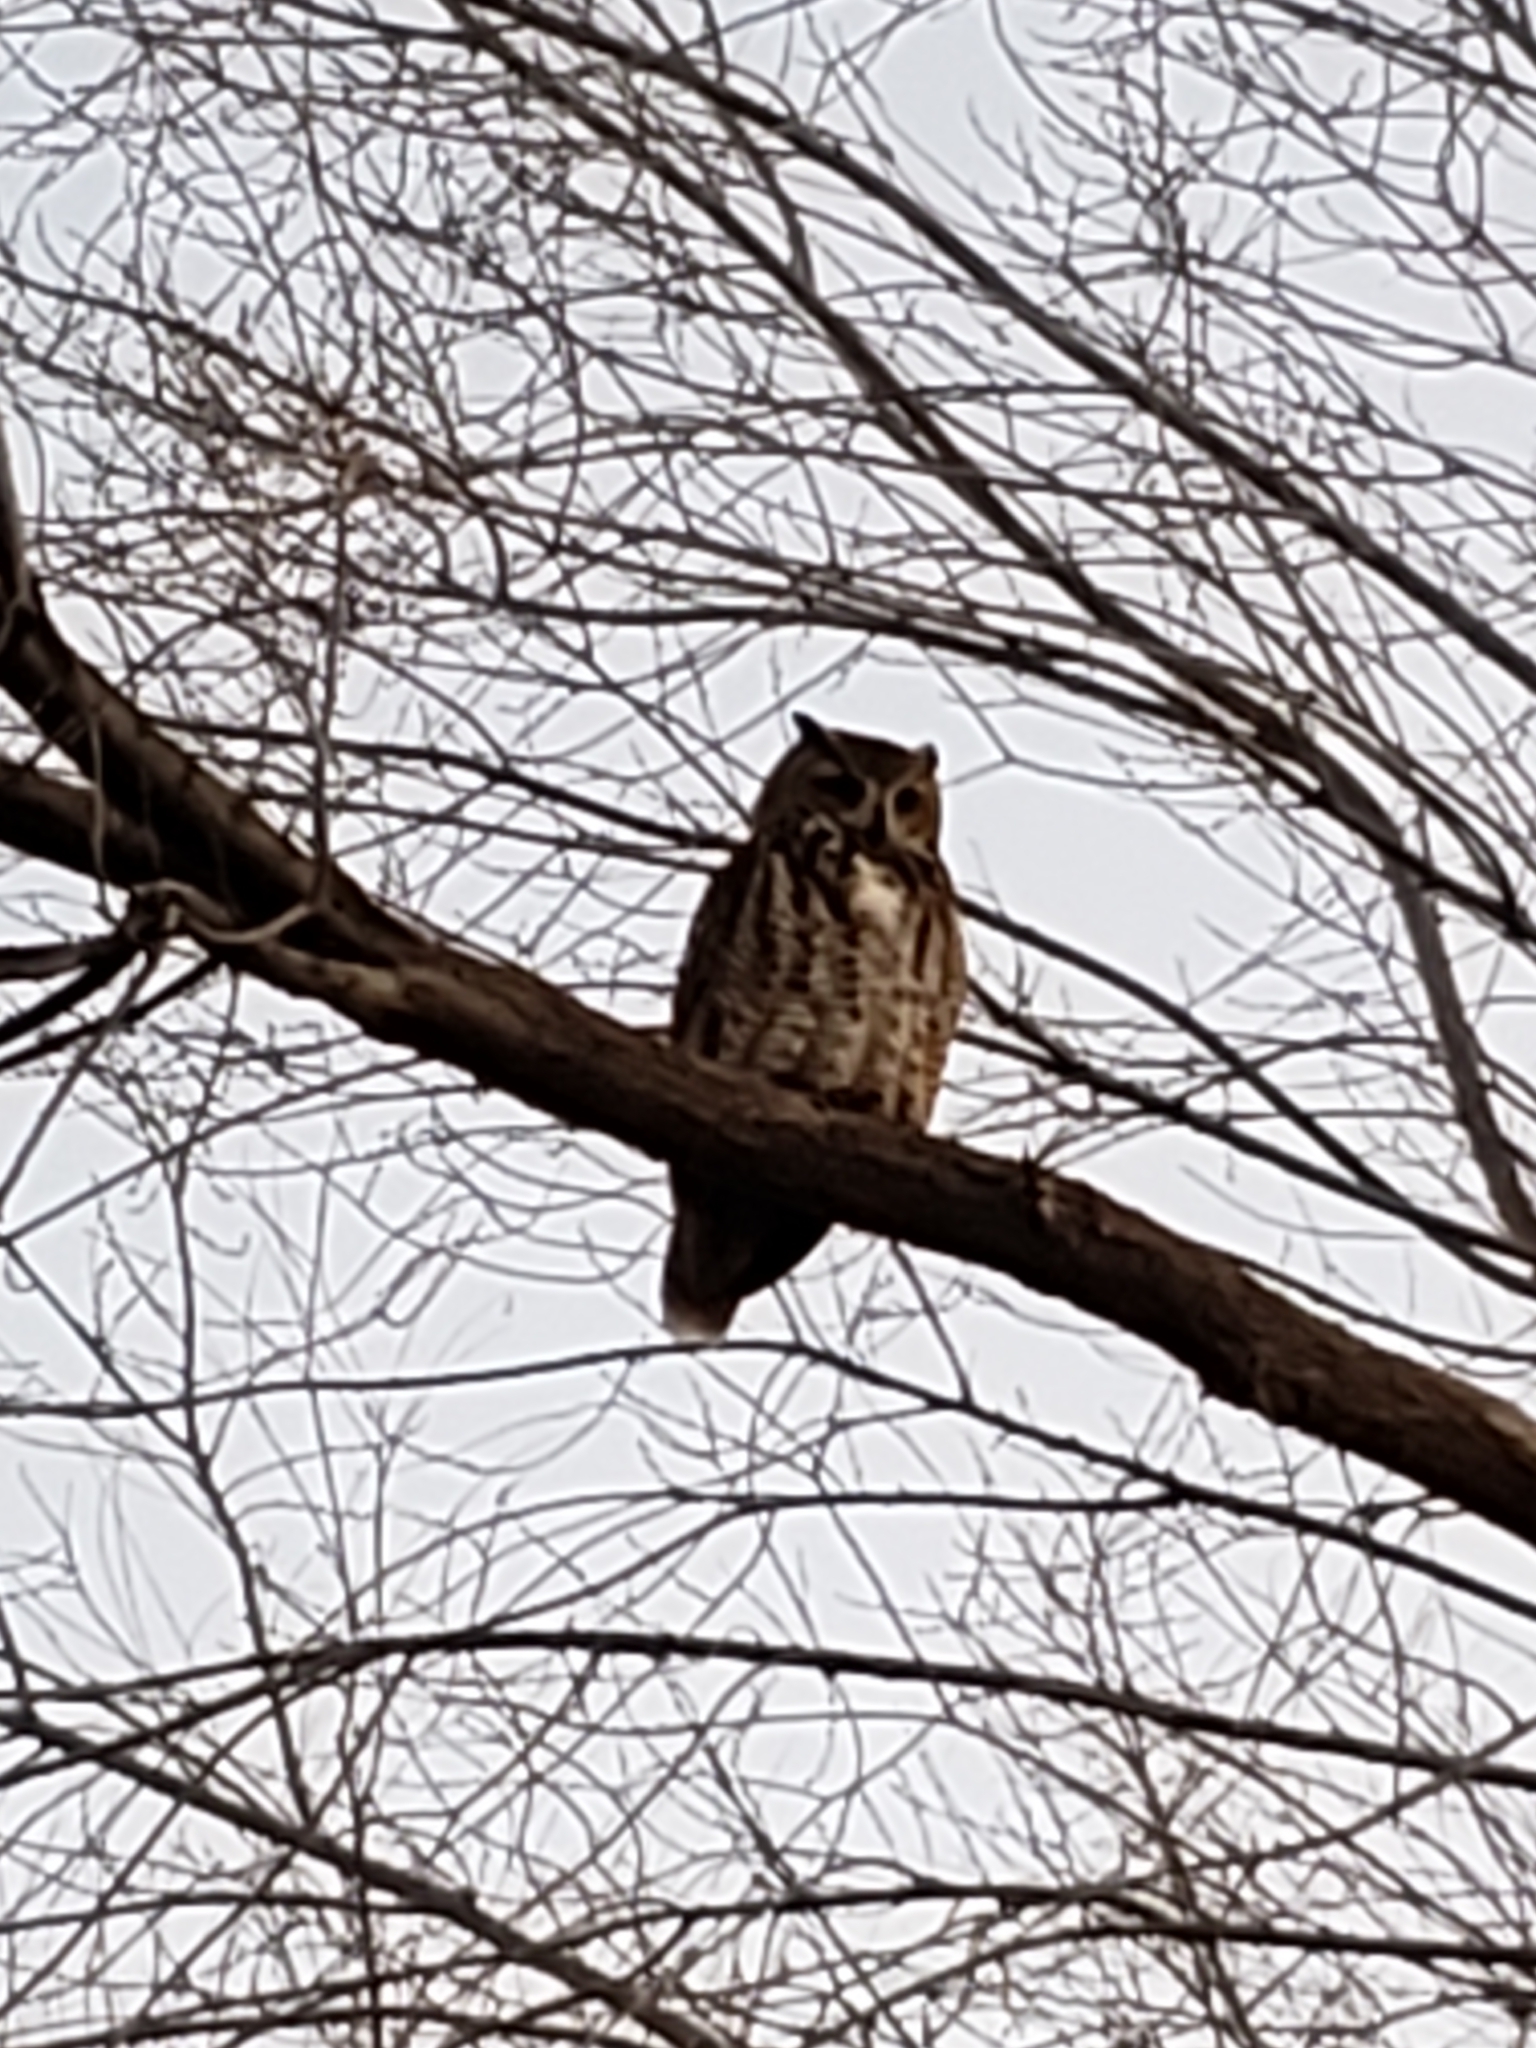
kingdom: Animalia
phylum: Chordata
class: Aves
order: Strigiformes
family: Strigidae
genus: Bubo
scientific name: Bubo virginianus
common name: Great horned owl
